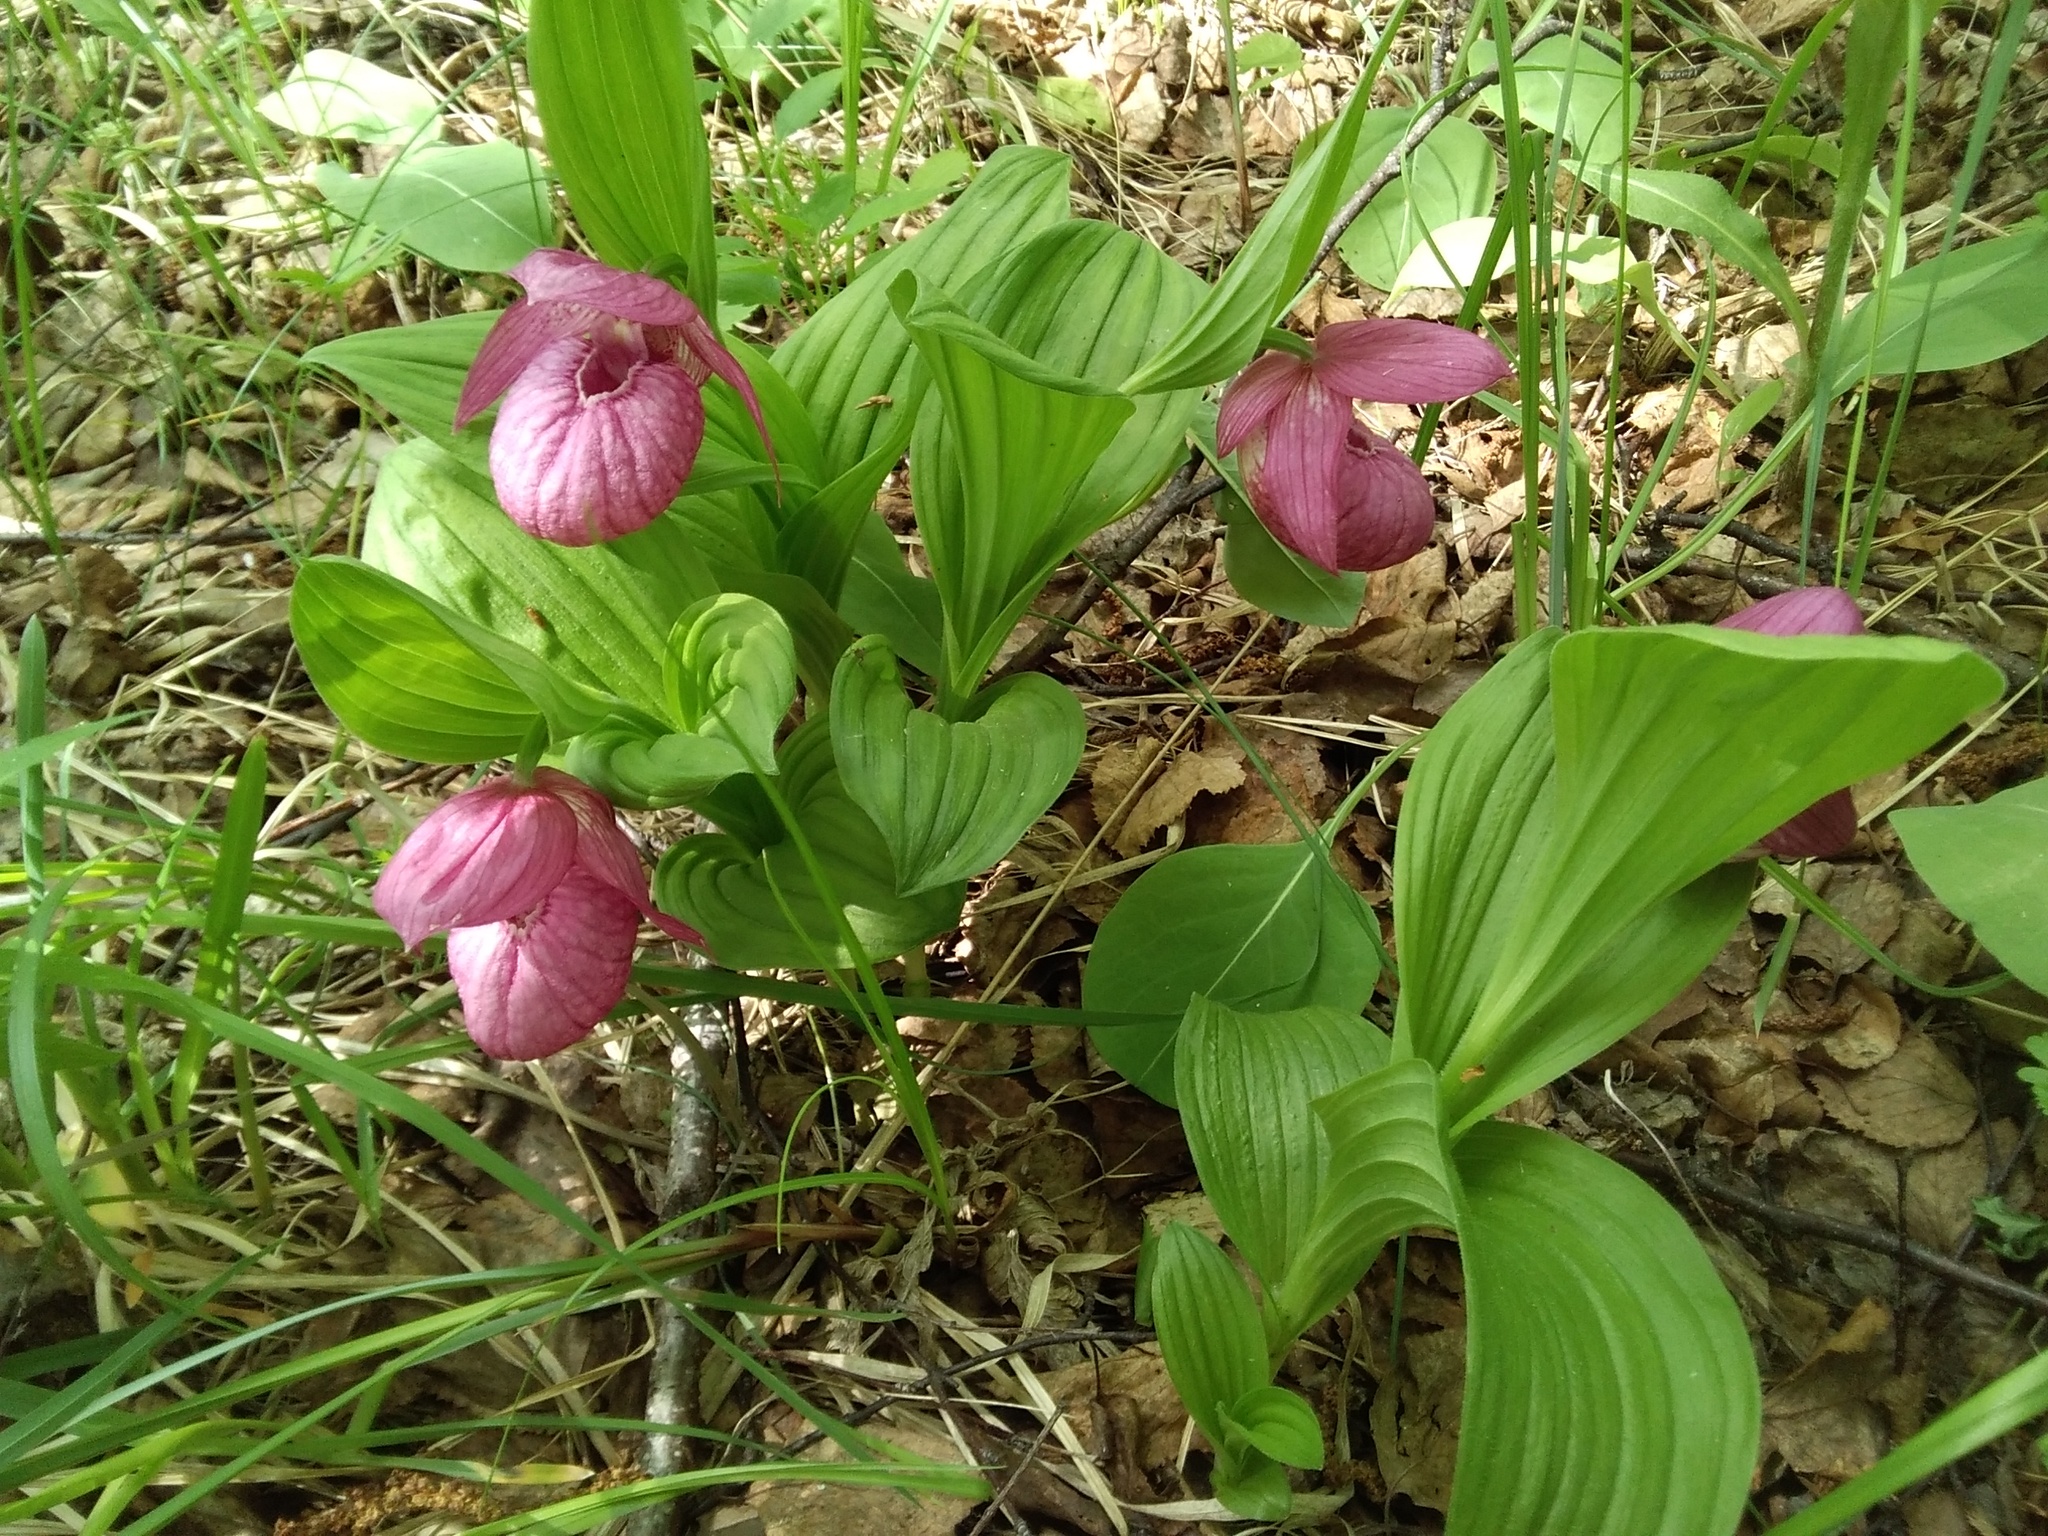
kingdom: Plantae
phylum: Tracheophyta
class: Liliopsida
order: Asparagales
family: Orchidaceae
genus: Cypripedium
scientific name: Cypripedium macranthos
